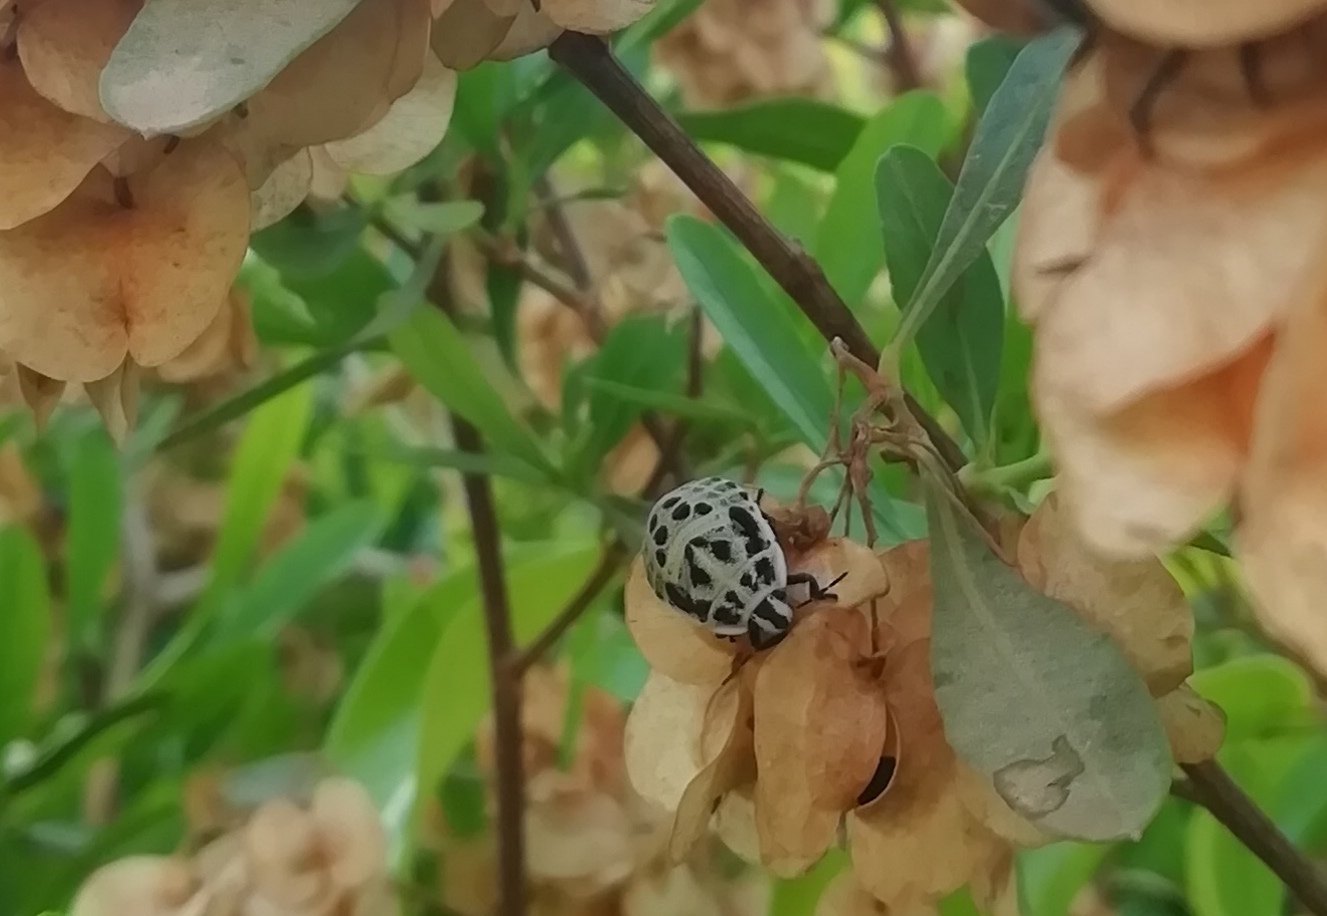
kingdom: Animalia
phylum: Arthropoda
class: Insecta
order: Hemiptera
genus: Deroplax
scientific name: Deroplax silphoides
